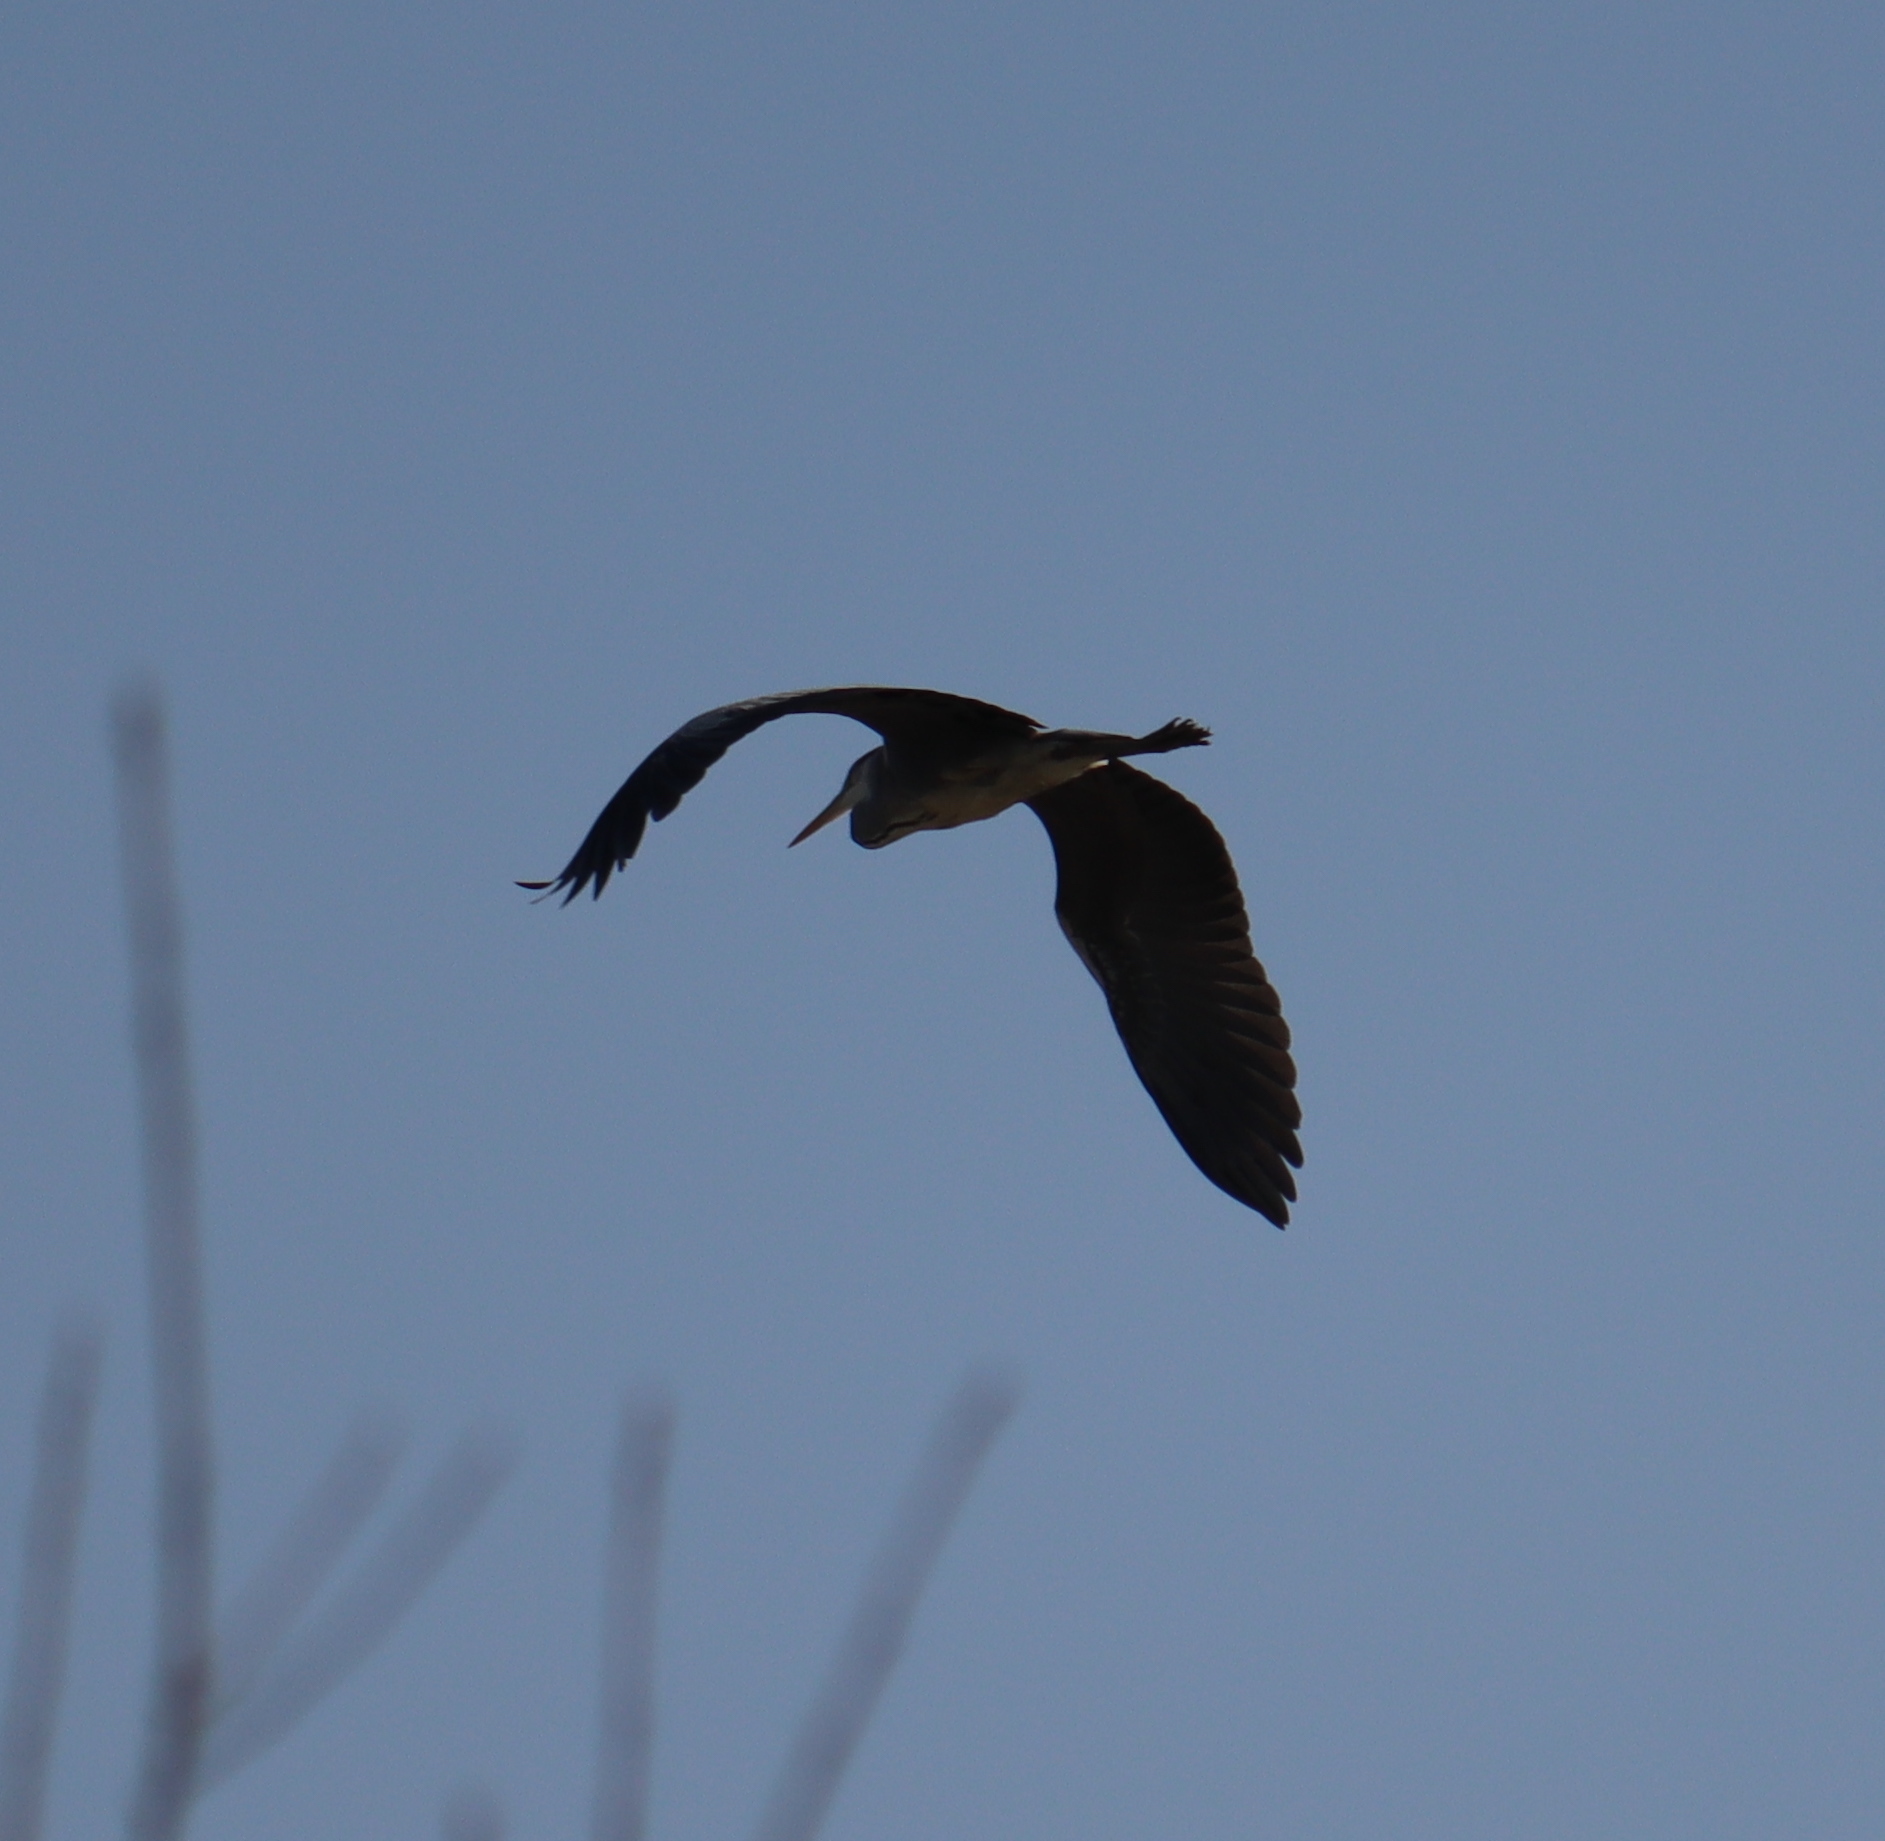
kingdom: Animalia
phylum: Chordata
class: Aves
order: Pelecaniformes
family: Ardeidae
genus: Ardea
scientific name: Ardea cinerea
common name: Grey heron
